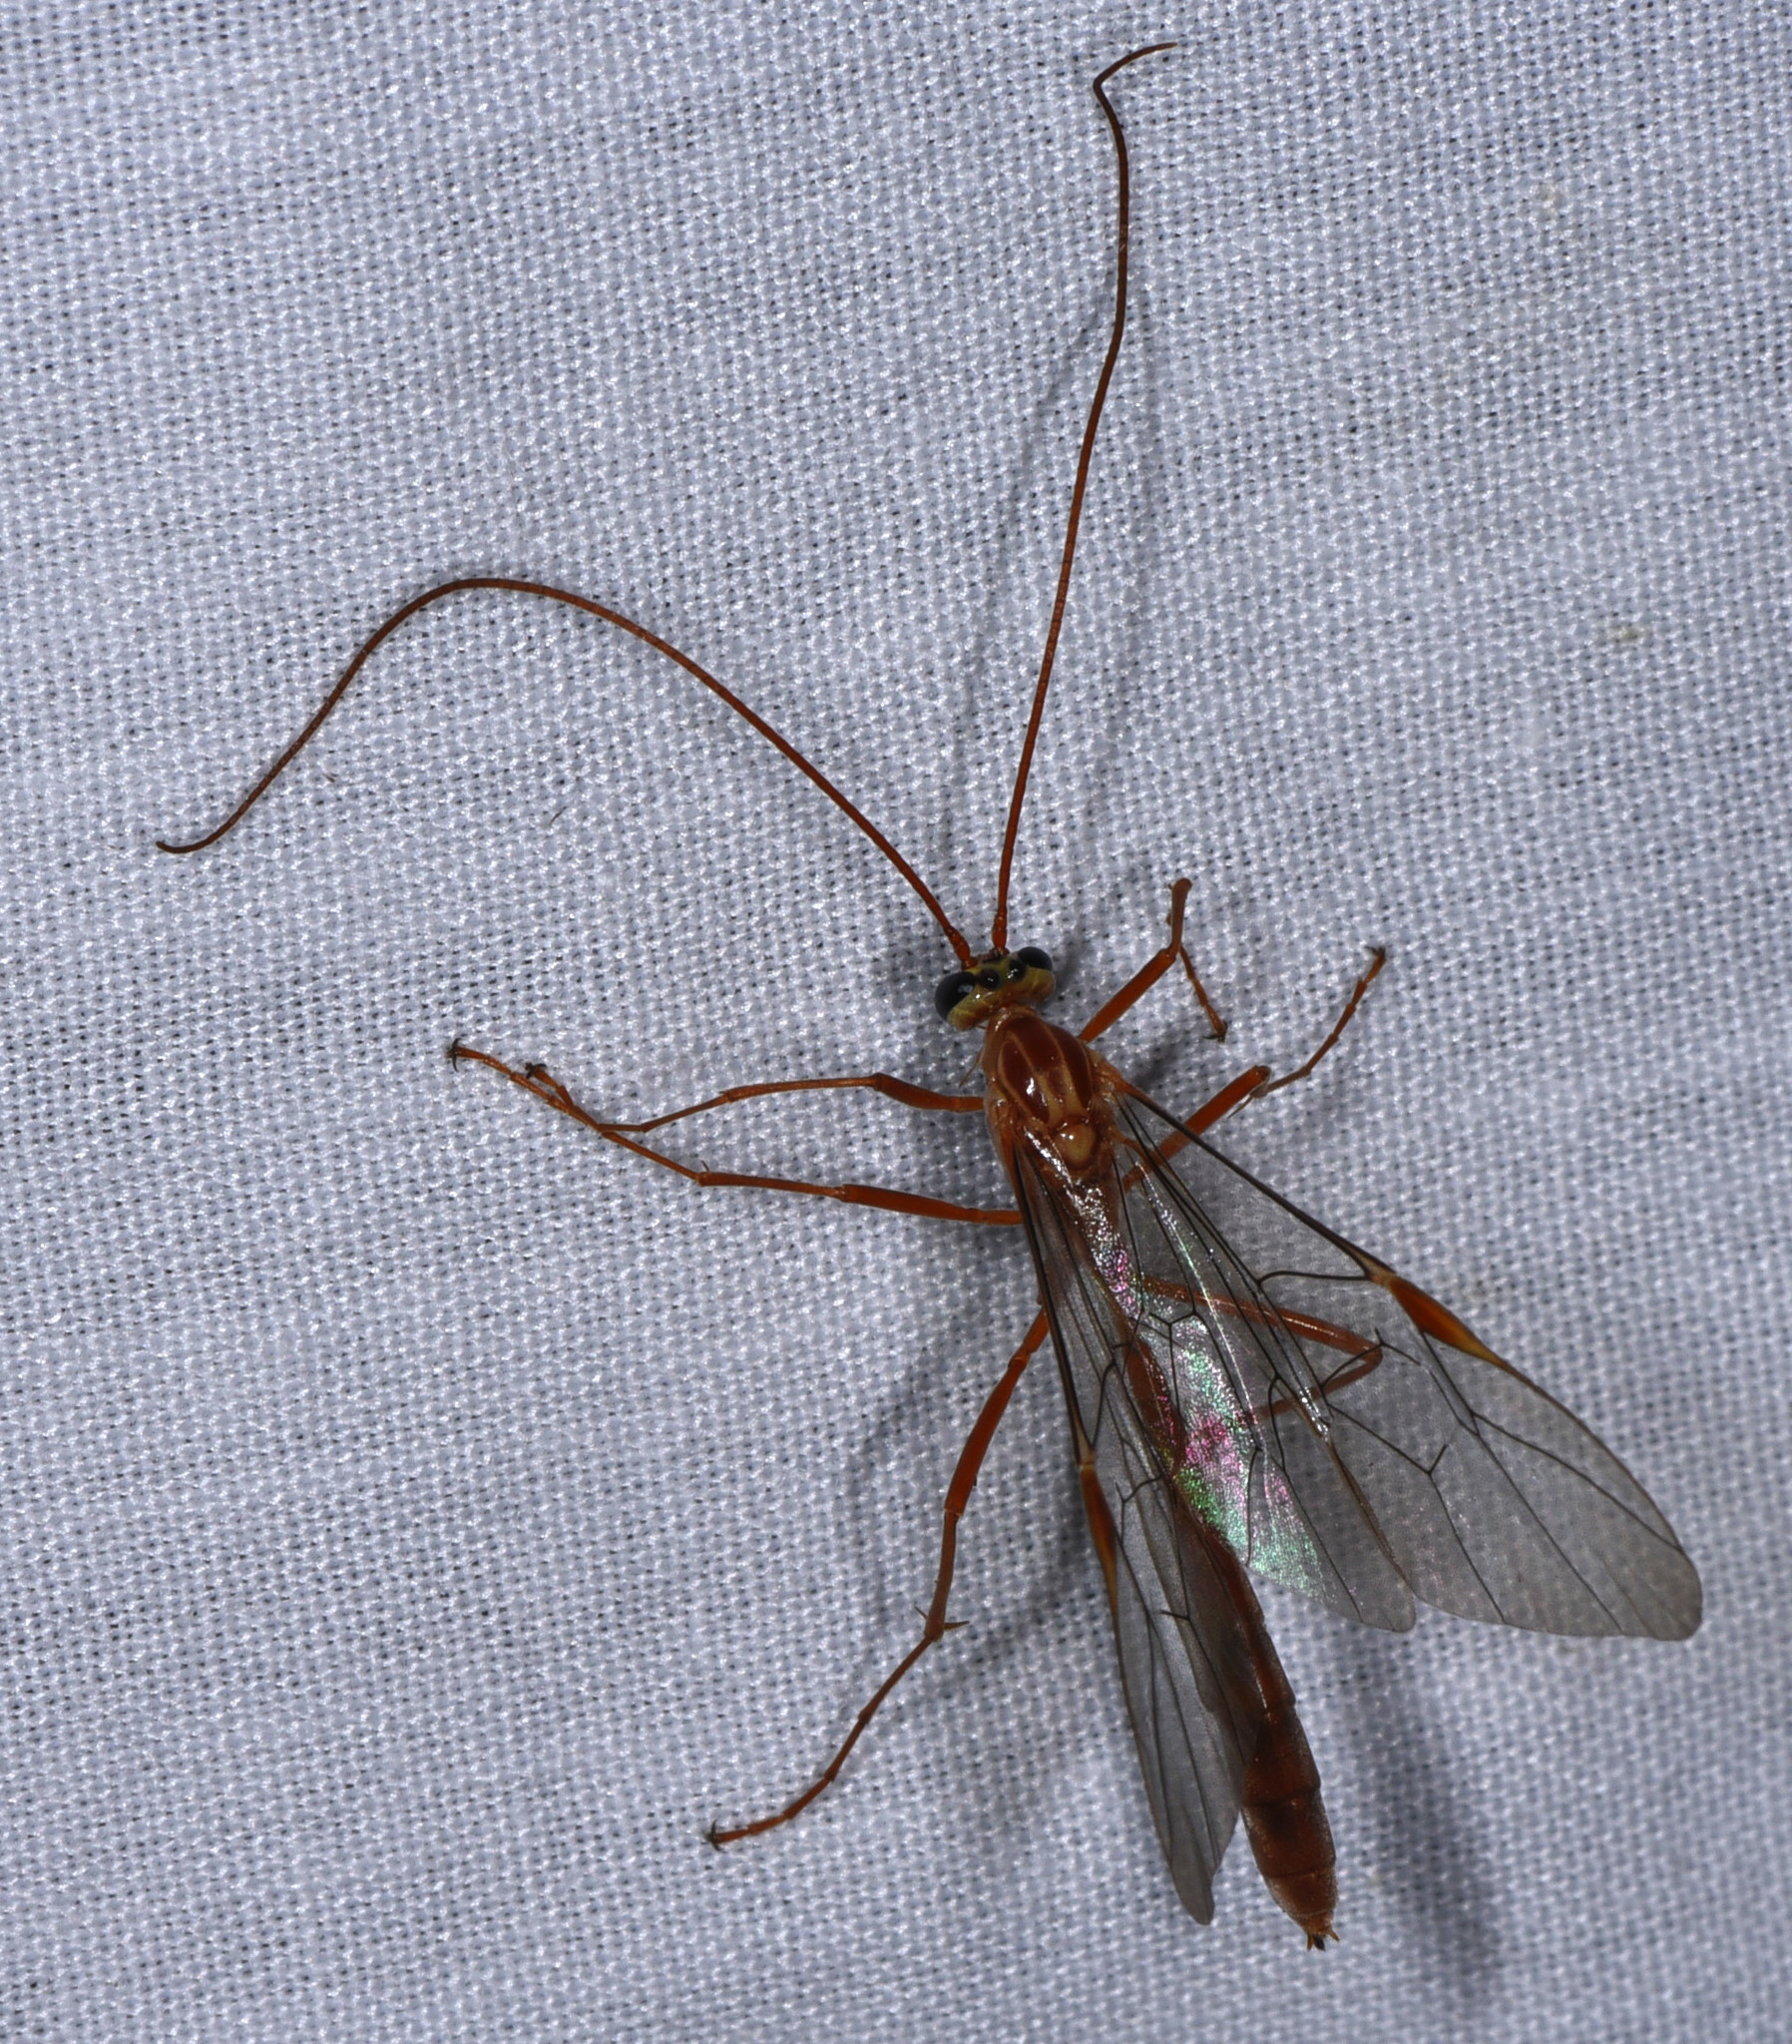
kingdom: Animalia
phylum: Arthropoda
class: Insecta
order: Hymenoptera
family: Ichneumonidae
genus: Ophion
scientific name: Ophion
